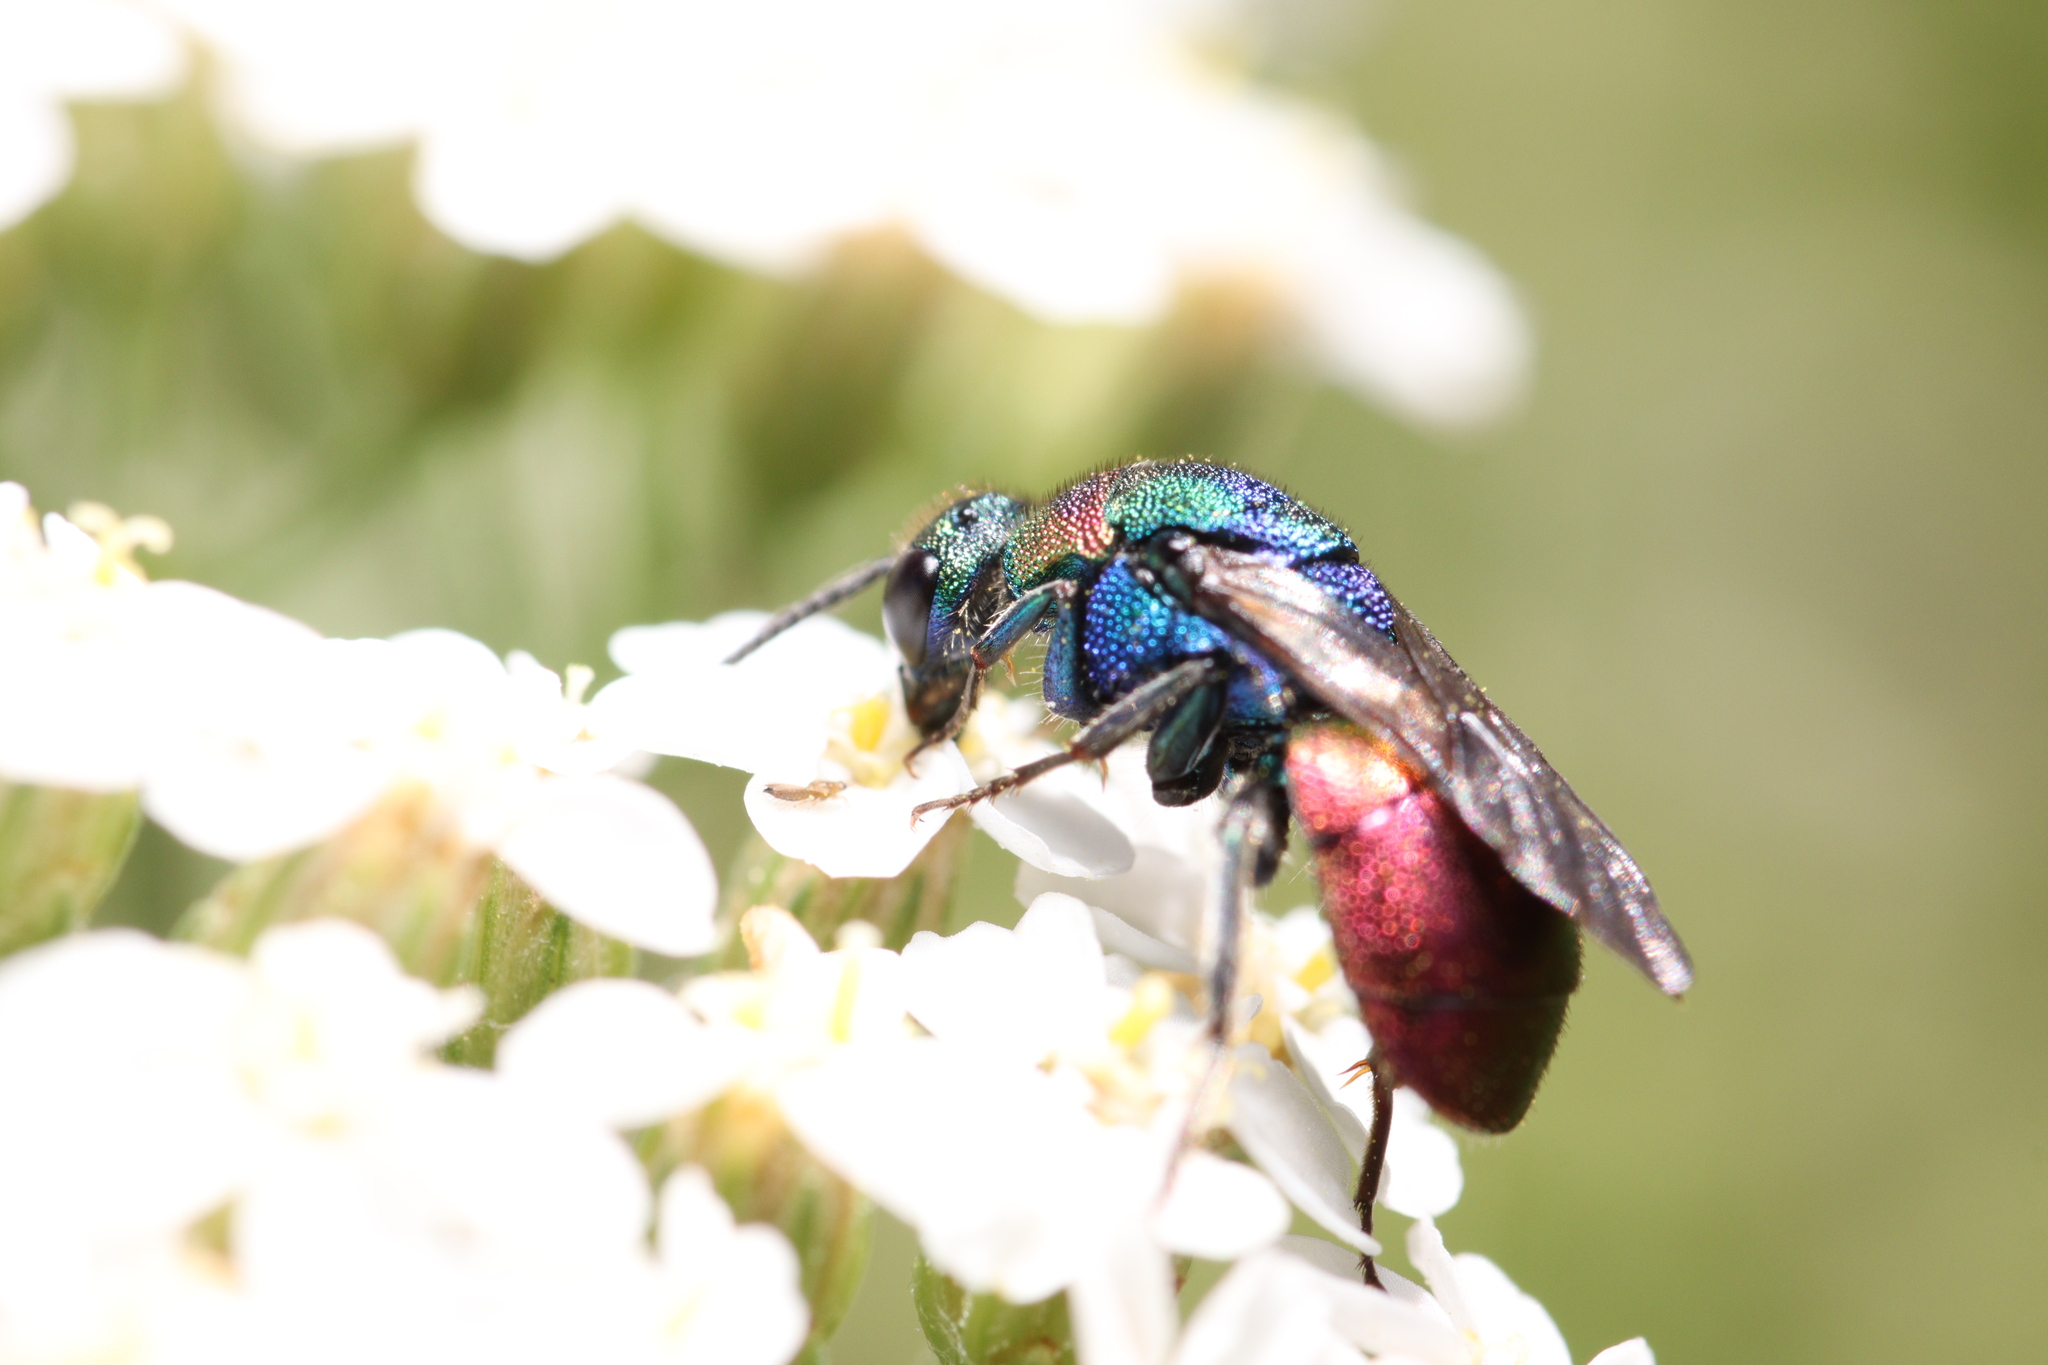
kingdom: Animalia
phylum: Arthropoda
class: Insecta
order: Hymenoptera
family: Chrysididae
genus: Hedychrum
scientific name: Hedychrum rutilans
